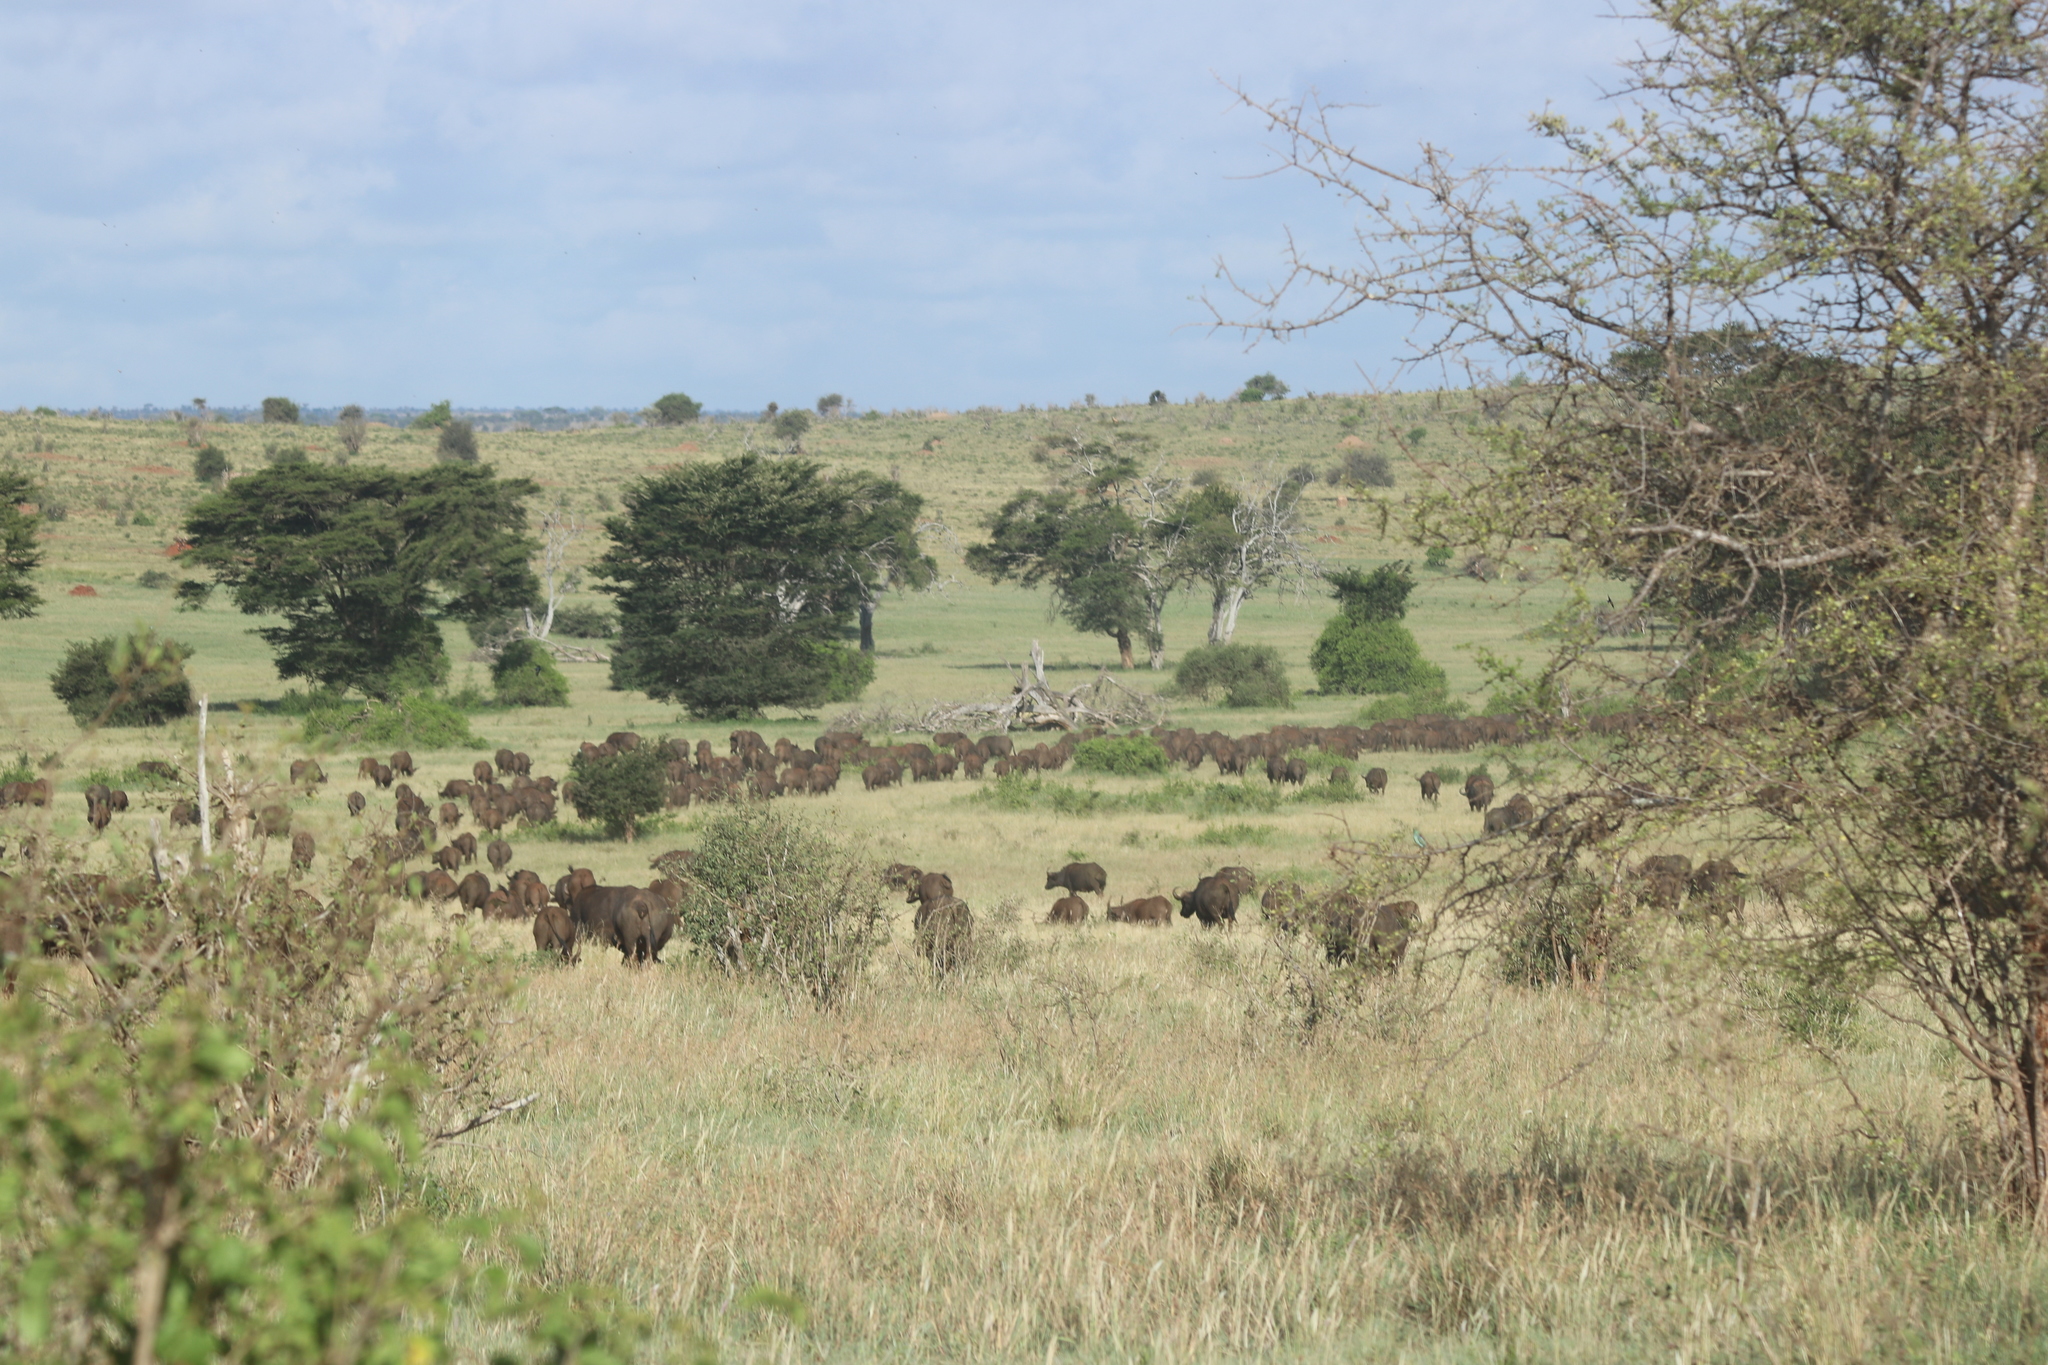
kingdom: Animalia
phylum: Chordata
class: Mammalia
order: Artiodactyla
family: Bovidae
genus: Syncerus
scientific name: Syncerus caffer
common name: African buffalo
